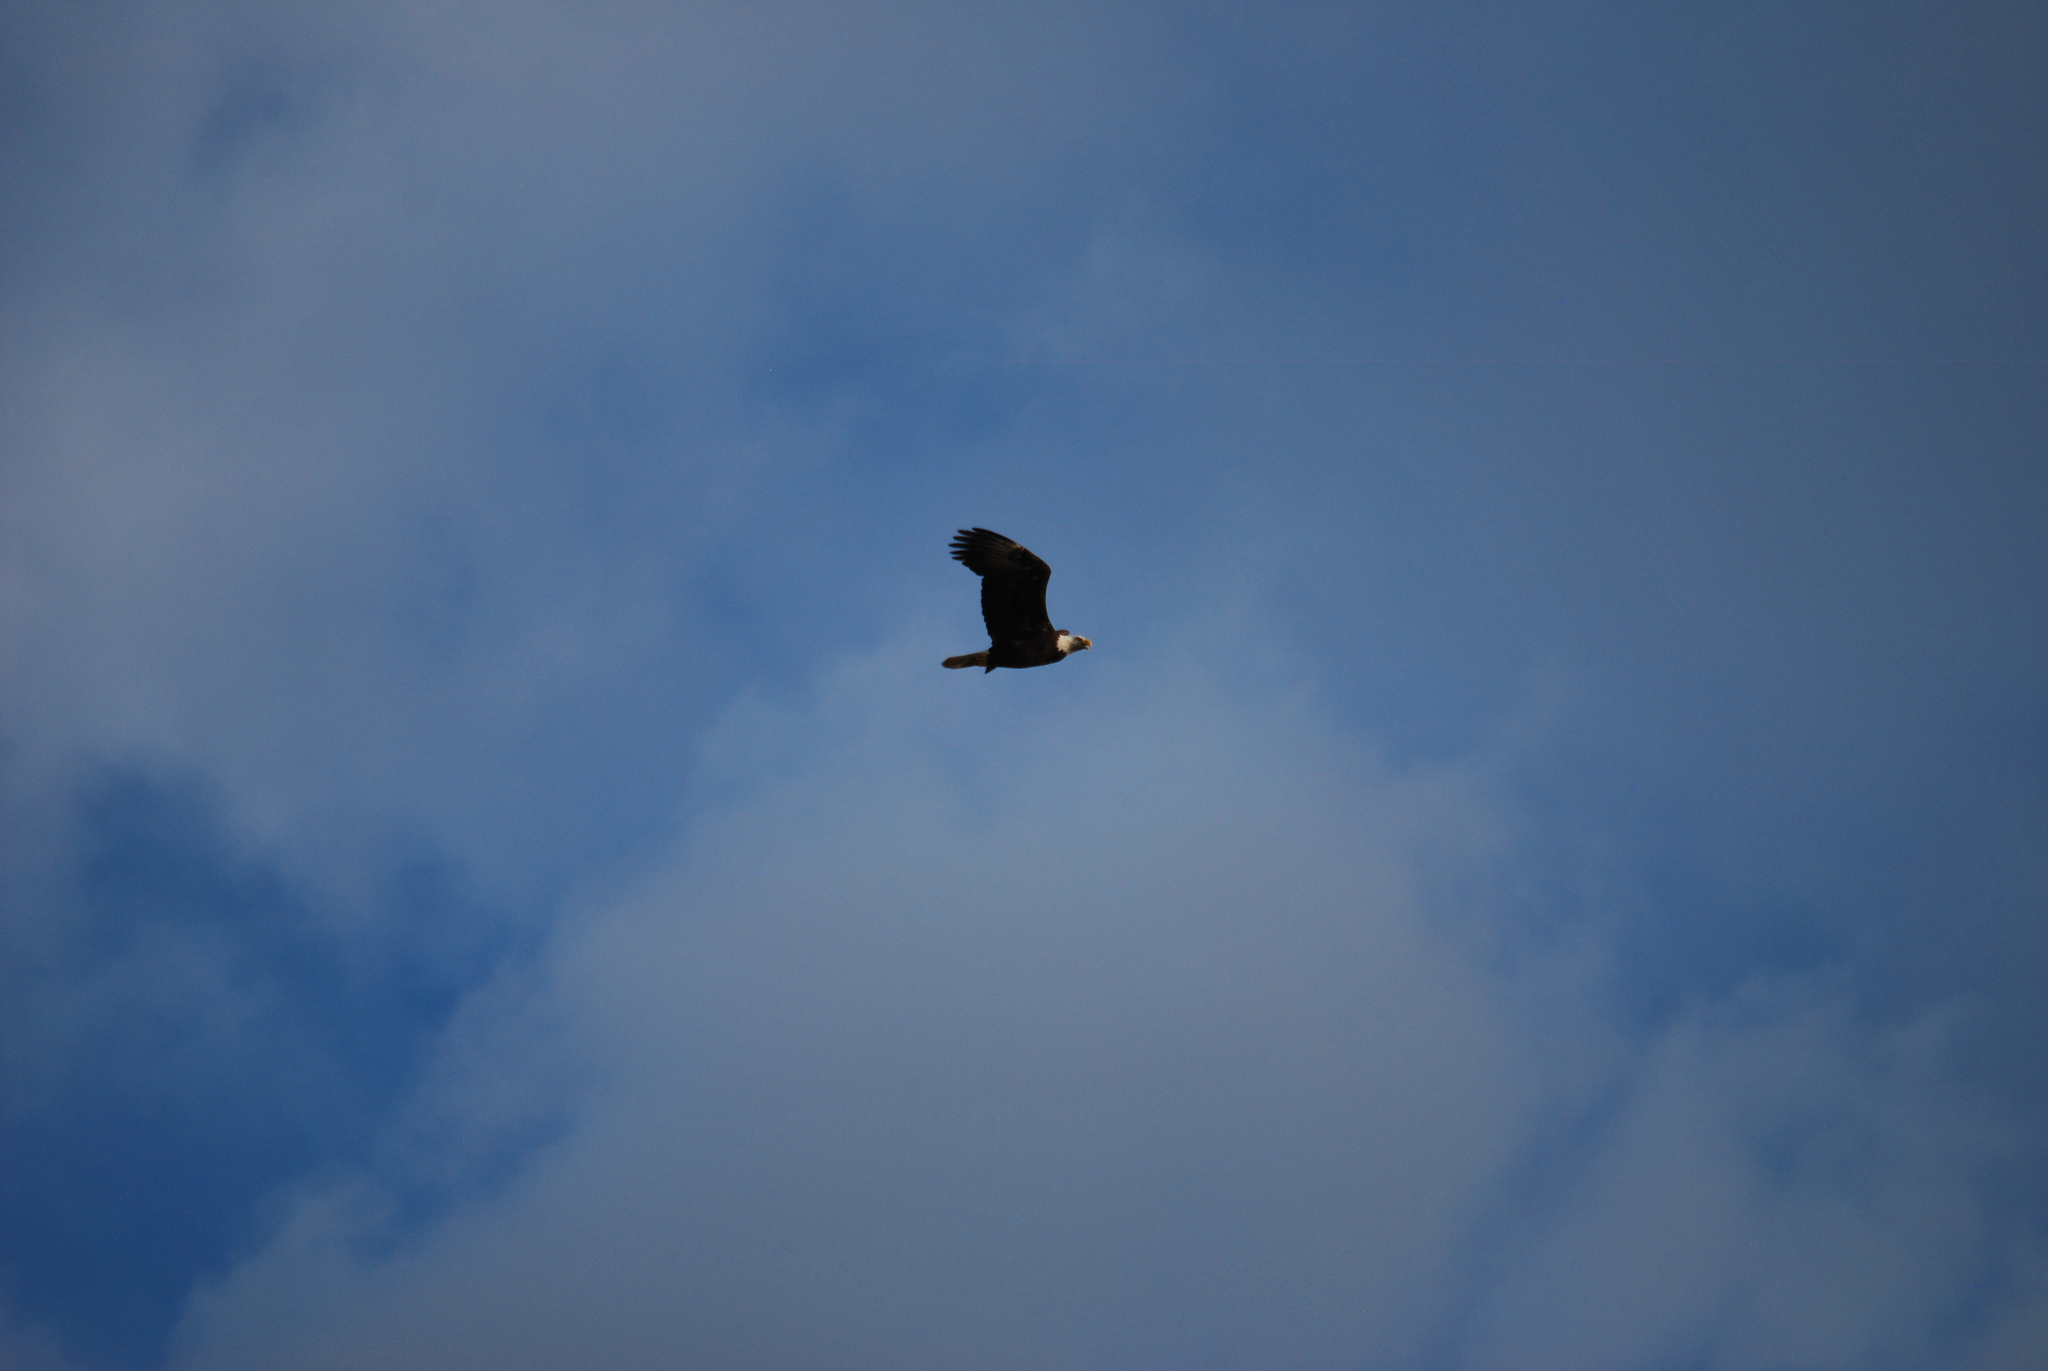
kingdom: Animalia
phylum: Chordata
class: Aves
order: Accipitriformes
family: Accipitridae
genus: Haliaeetus
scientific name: Haliaeetus leucocephalus
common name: Bald eagle
